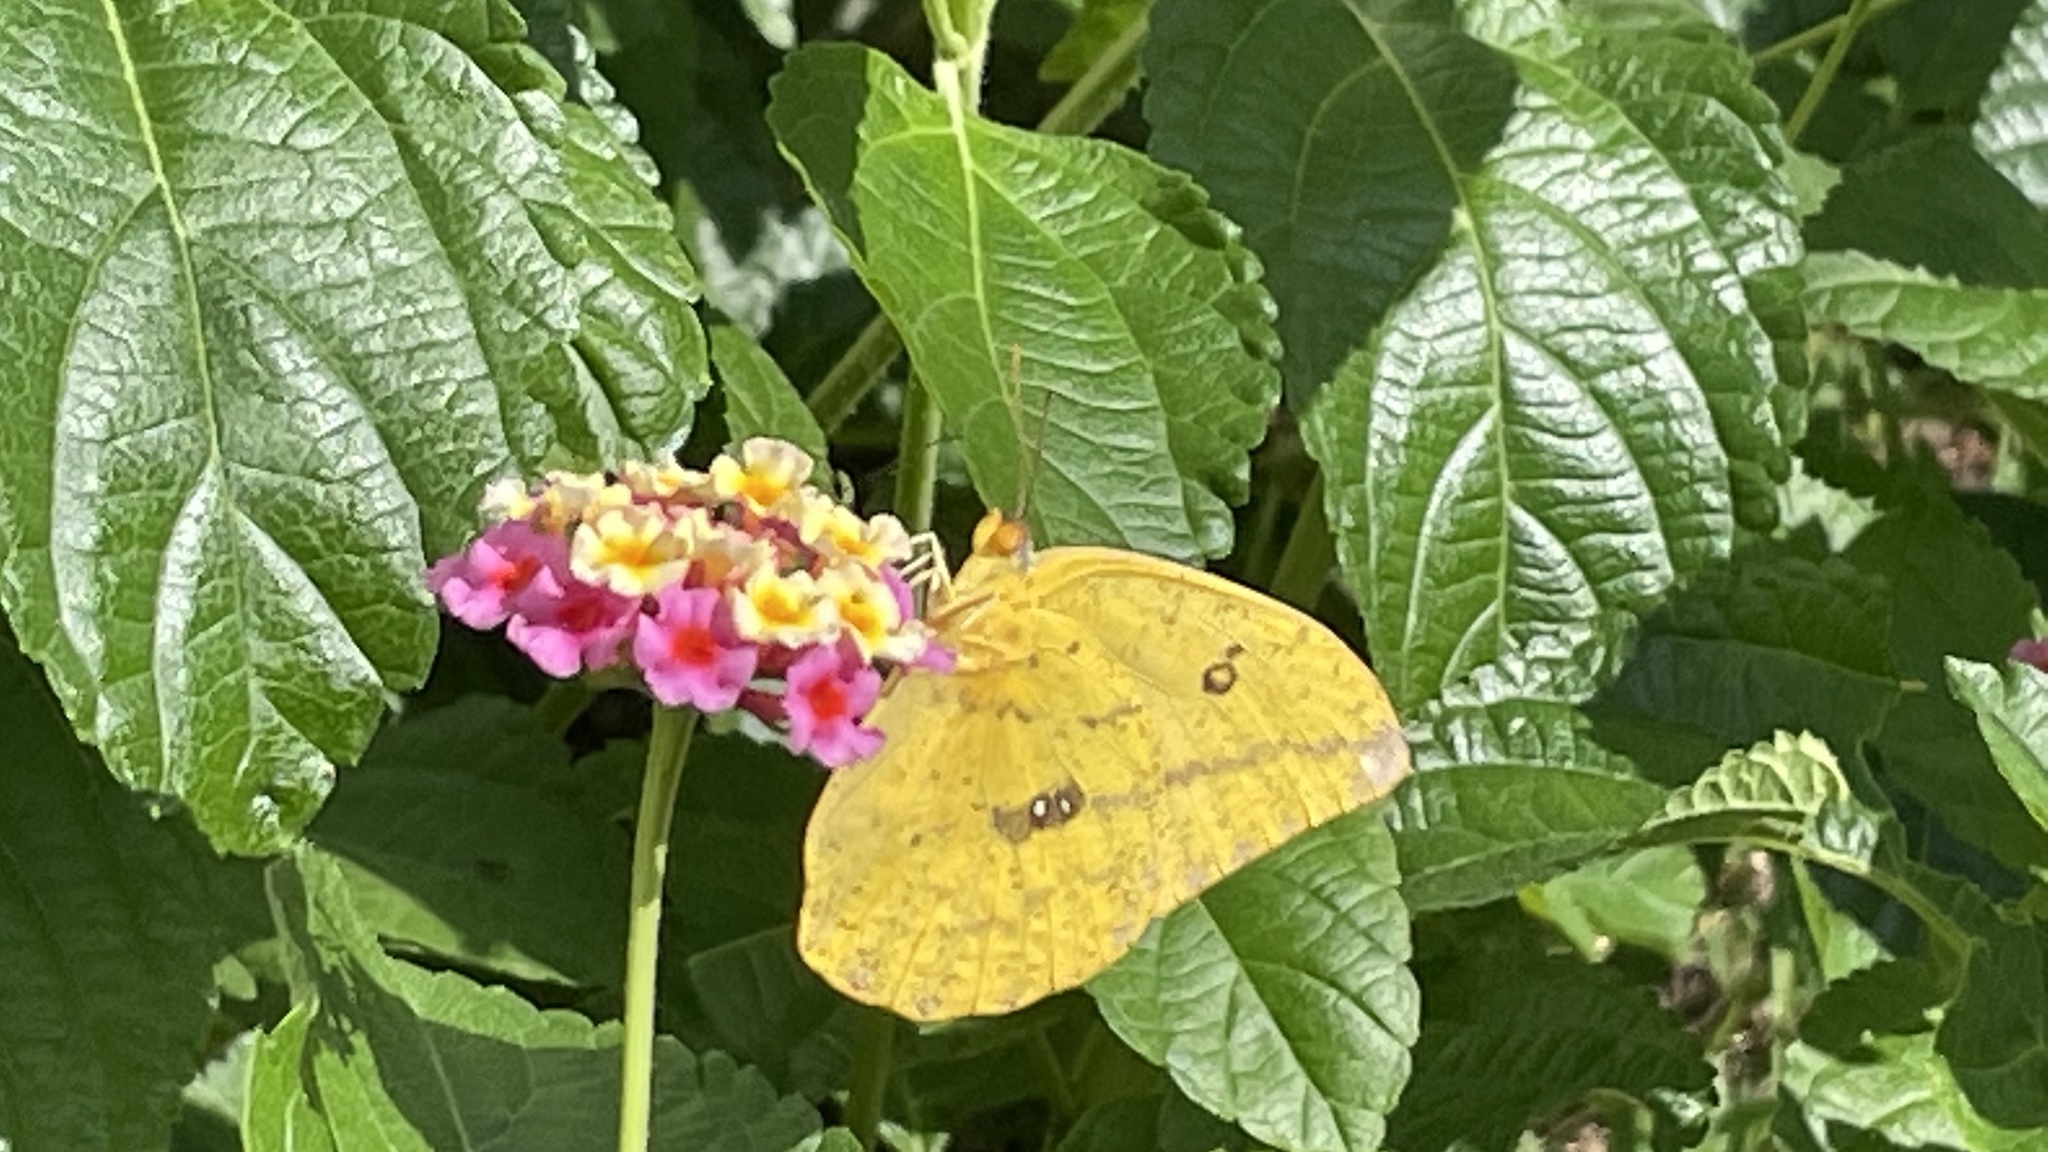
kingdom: Animalia
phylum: Arthropoda
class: Insecta
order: Lepidoptera
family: Pieridae
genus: Phoebis
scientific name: Phoebis agarithe
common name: Large orange sulphur
